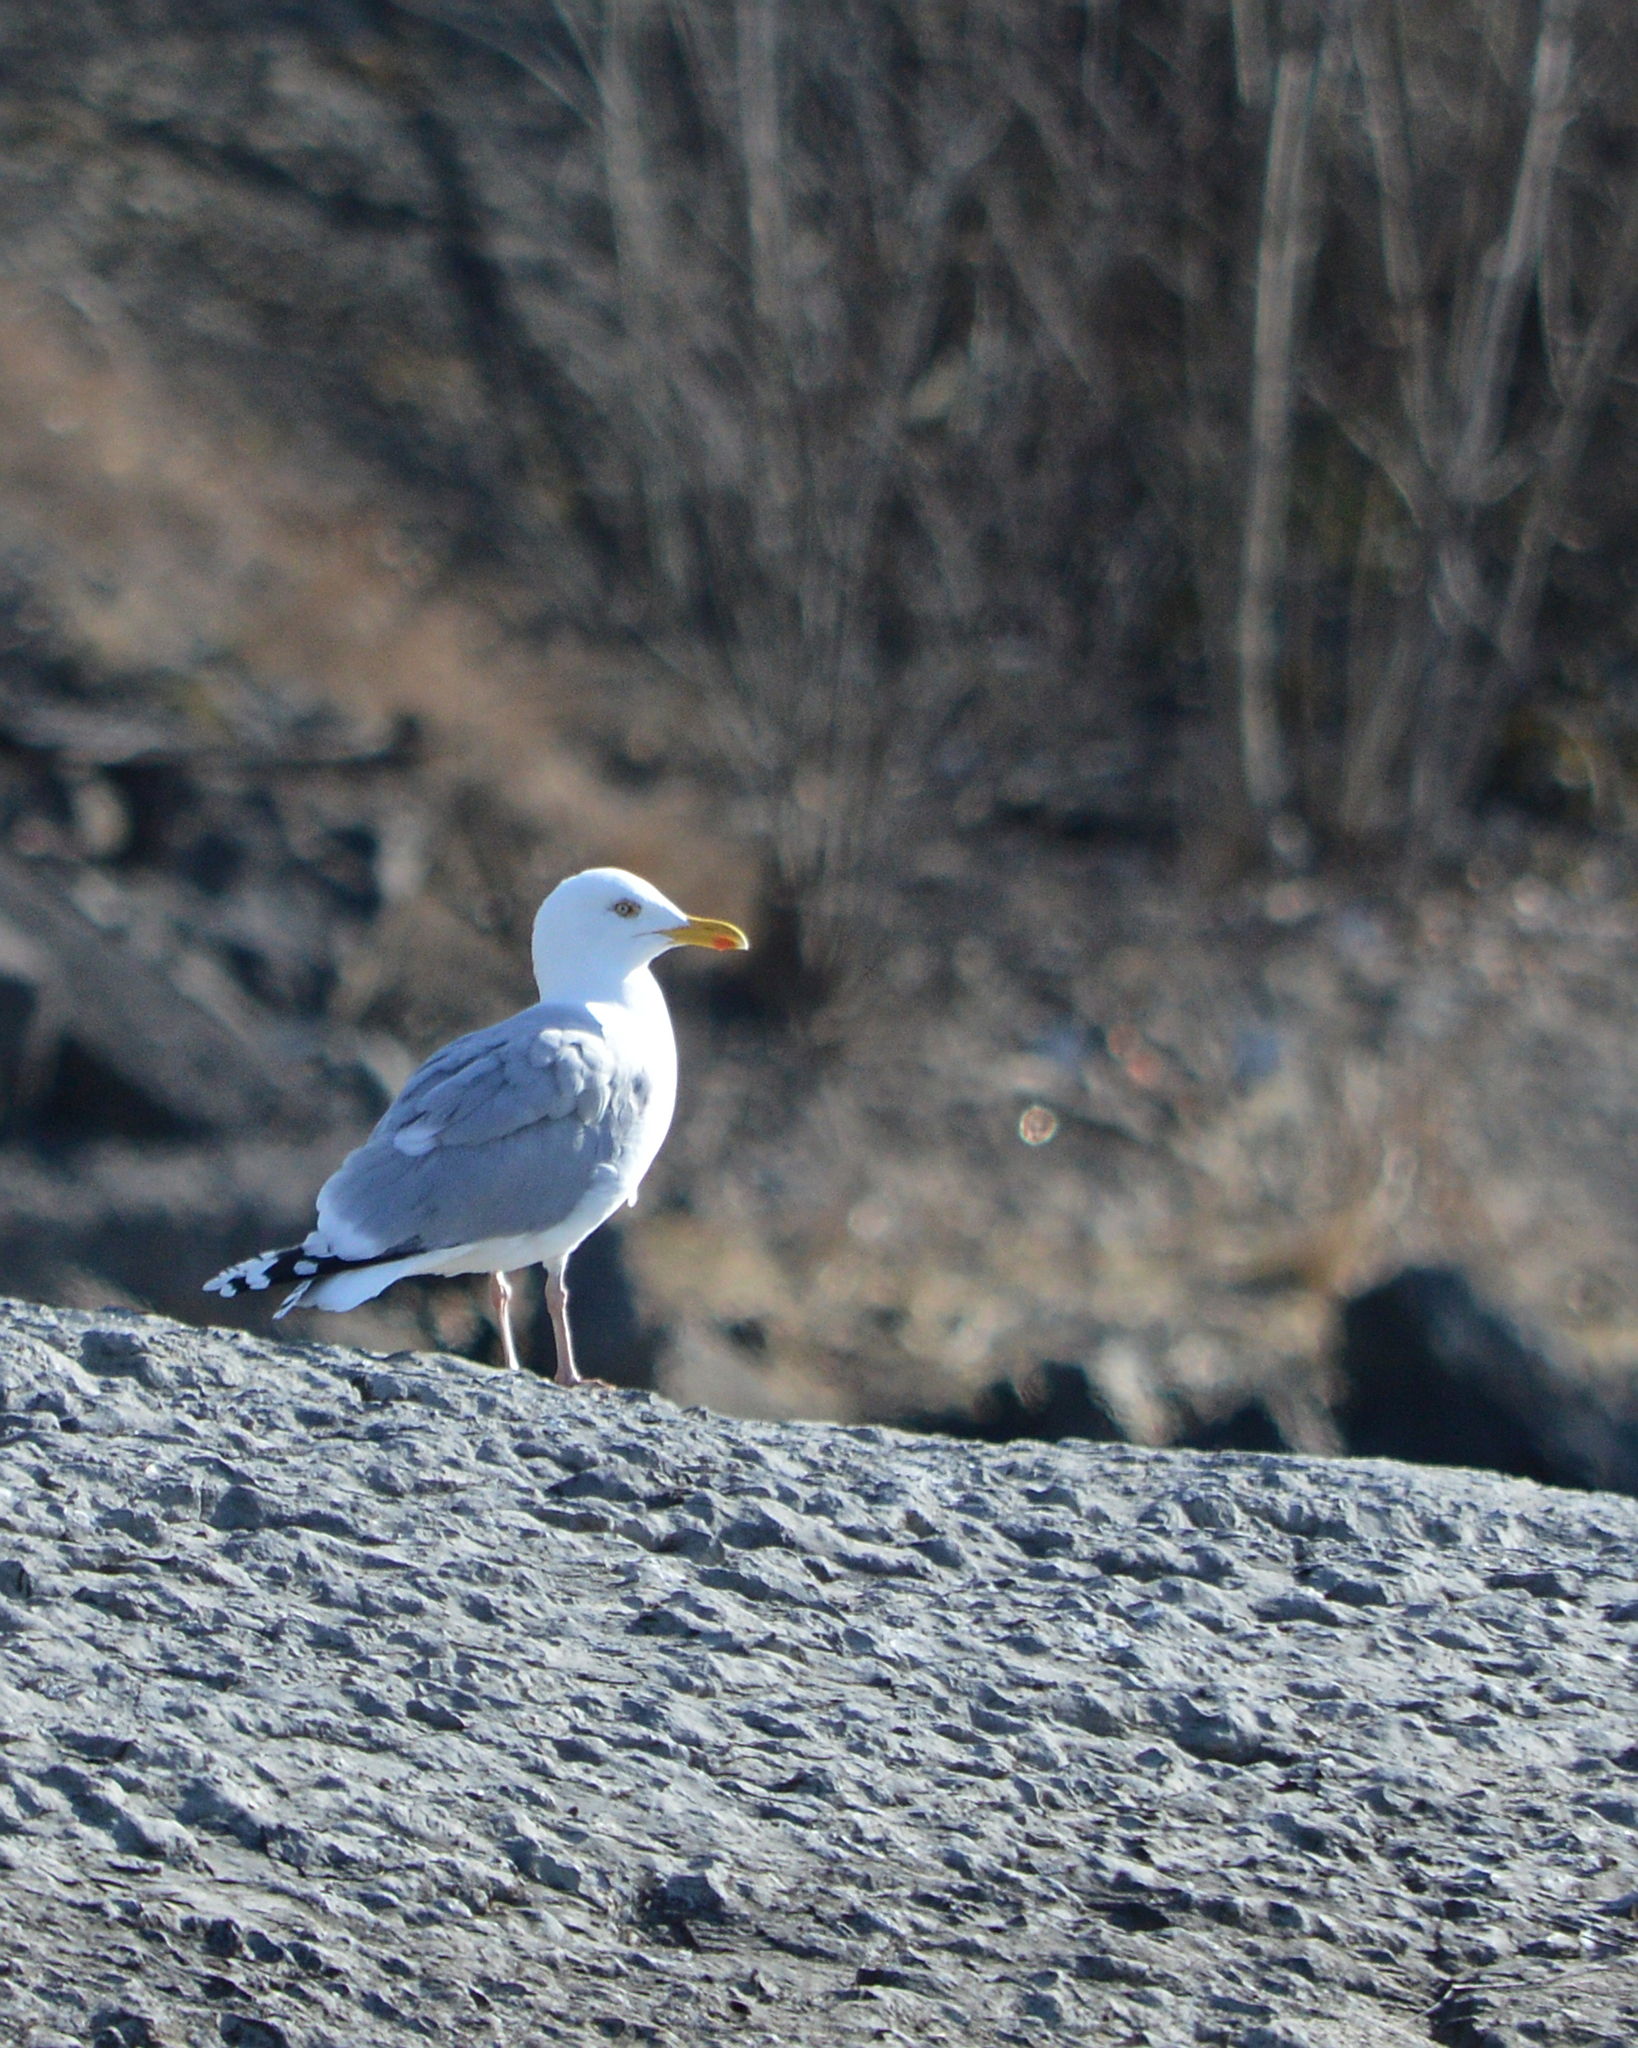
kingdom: Animalia
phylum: Chordata
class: Aves
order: Charadriiformes
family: Laridae
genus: Larus
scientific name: Larus argentatus
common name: Herring gull
